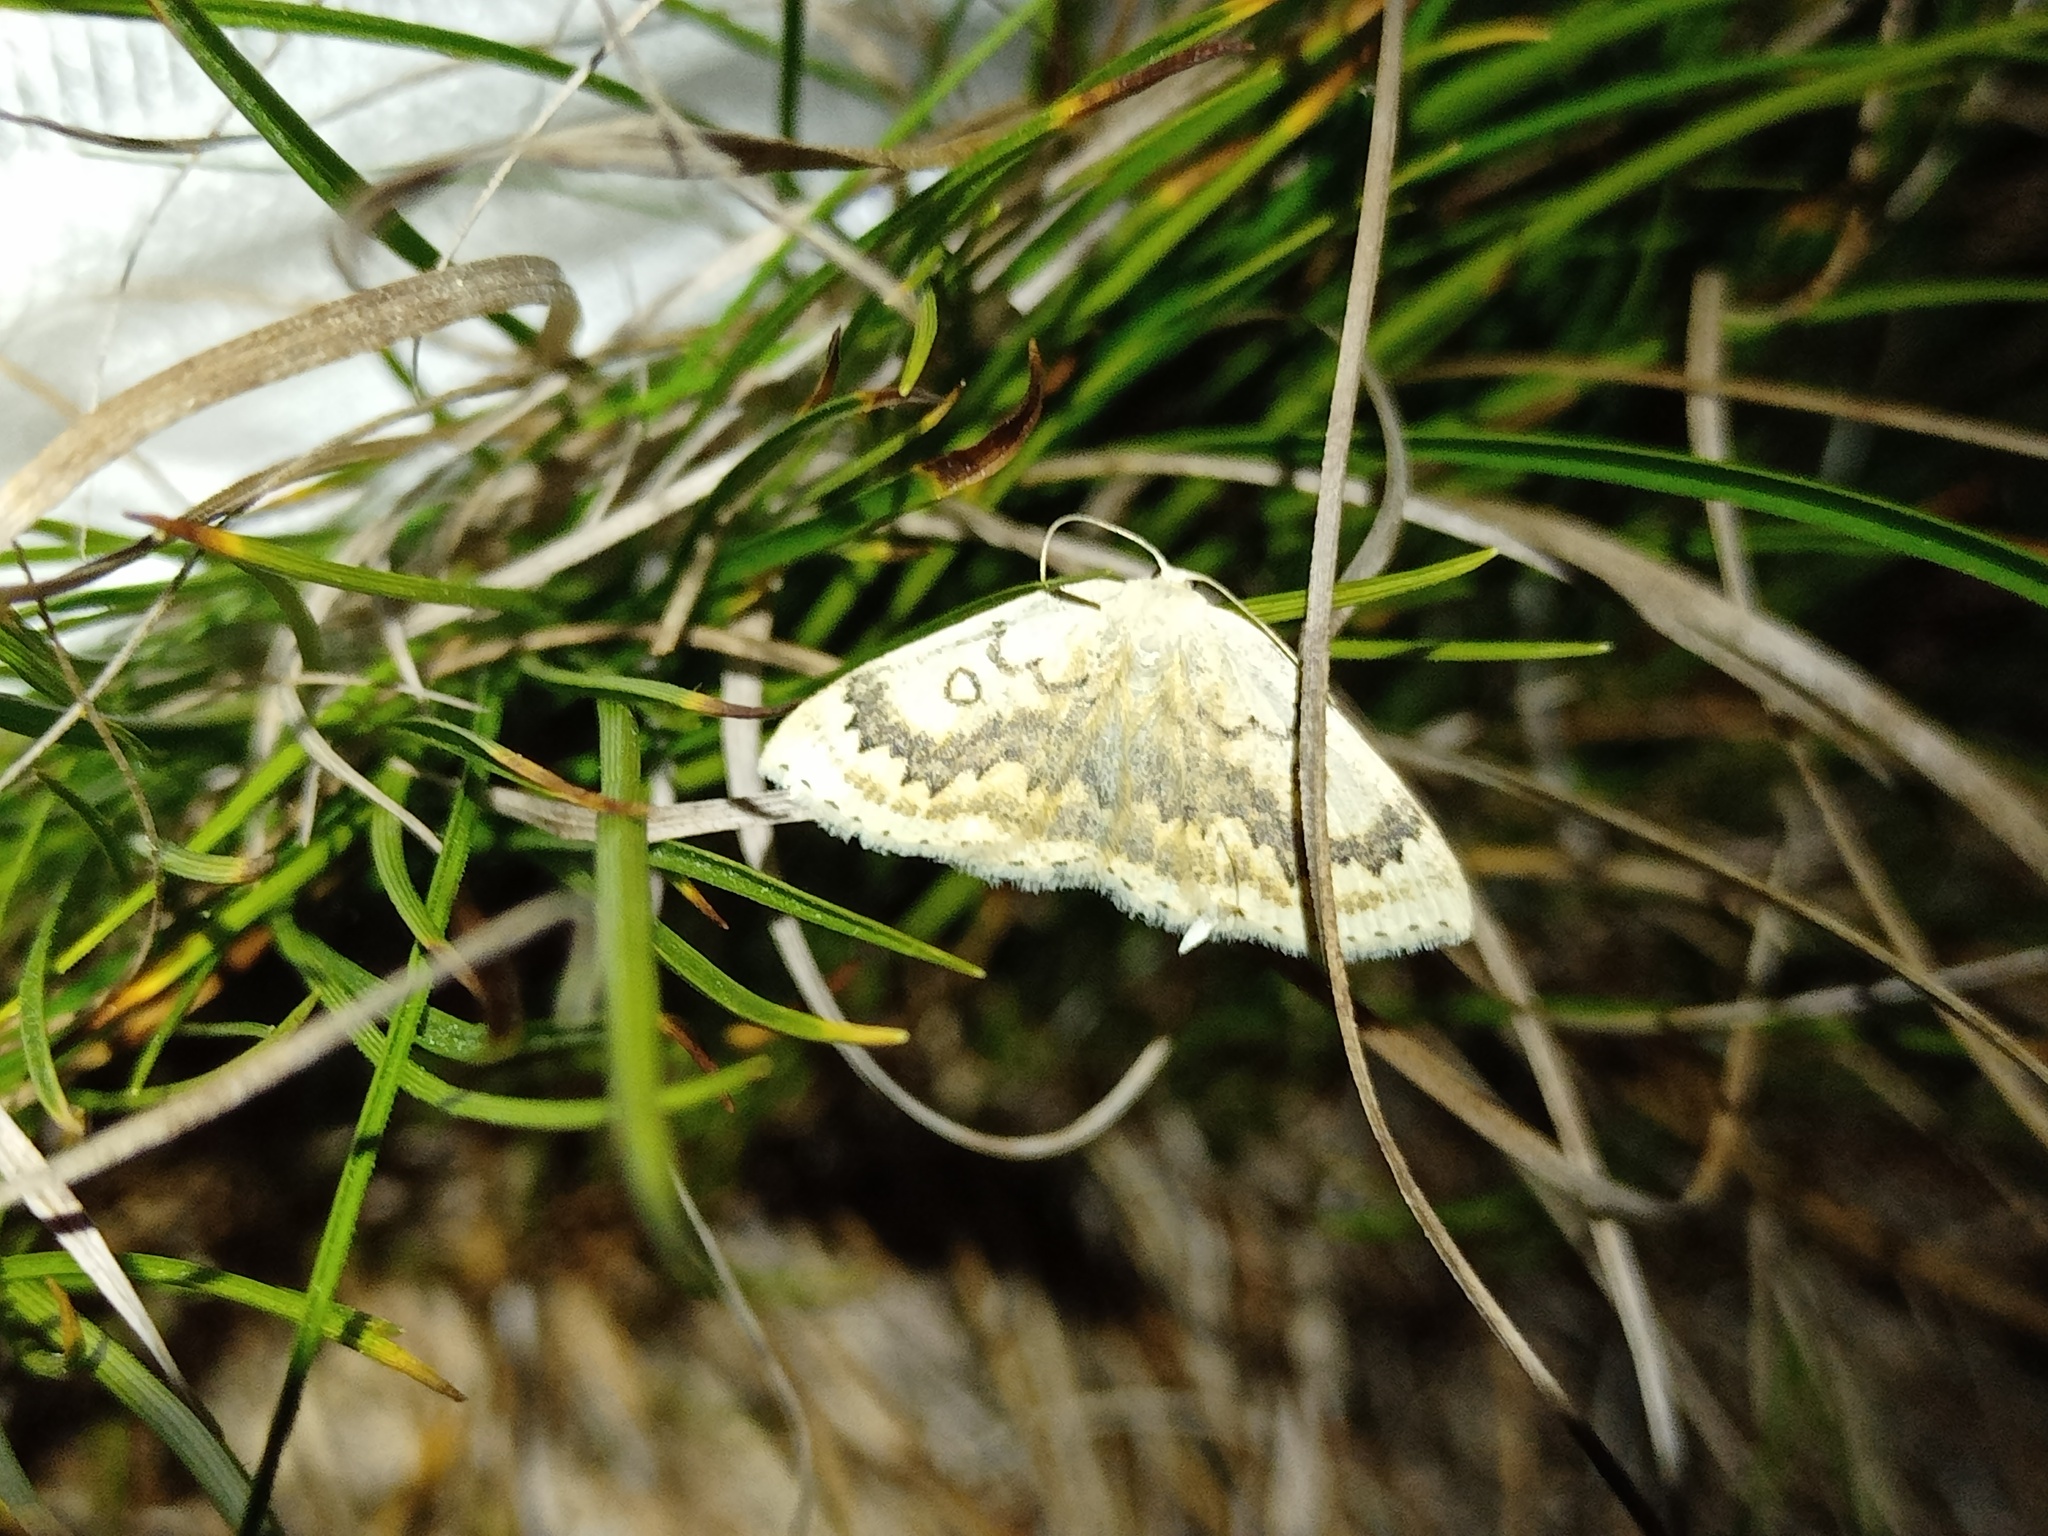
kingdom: Animalia
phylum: Arthropoda
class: Insecta
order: Lepidoptera
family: Geometridae
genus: Cyclophora
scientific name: Cyclophora annularia
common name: Mocha
